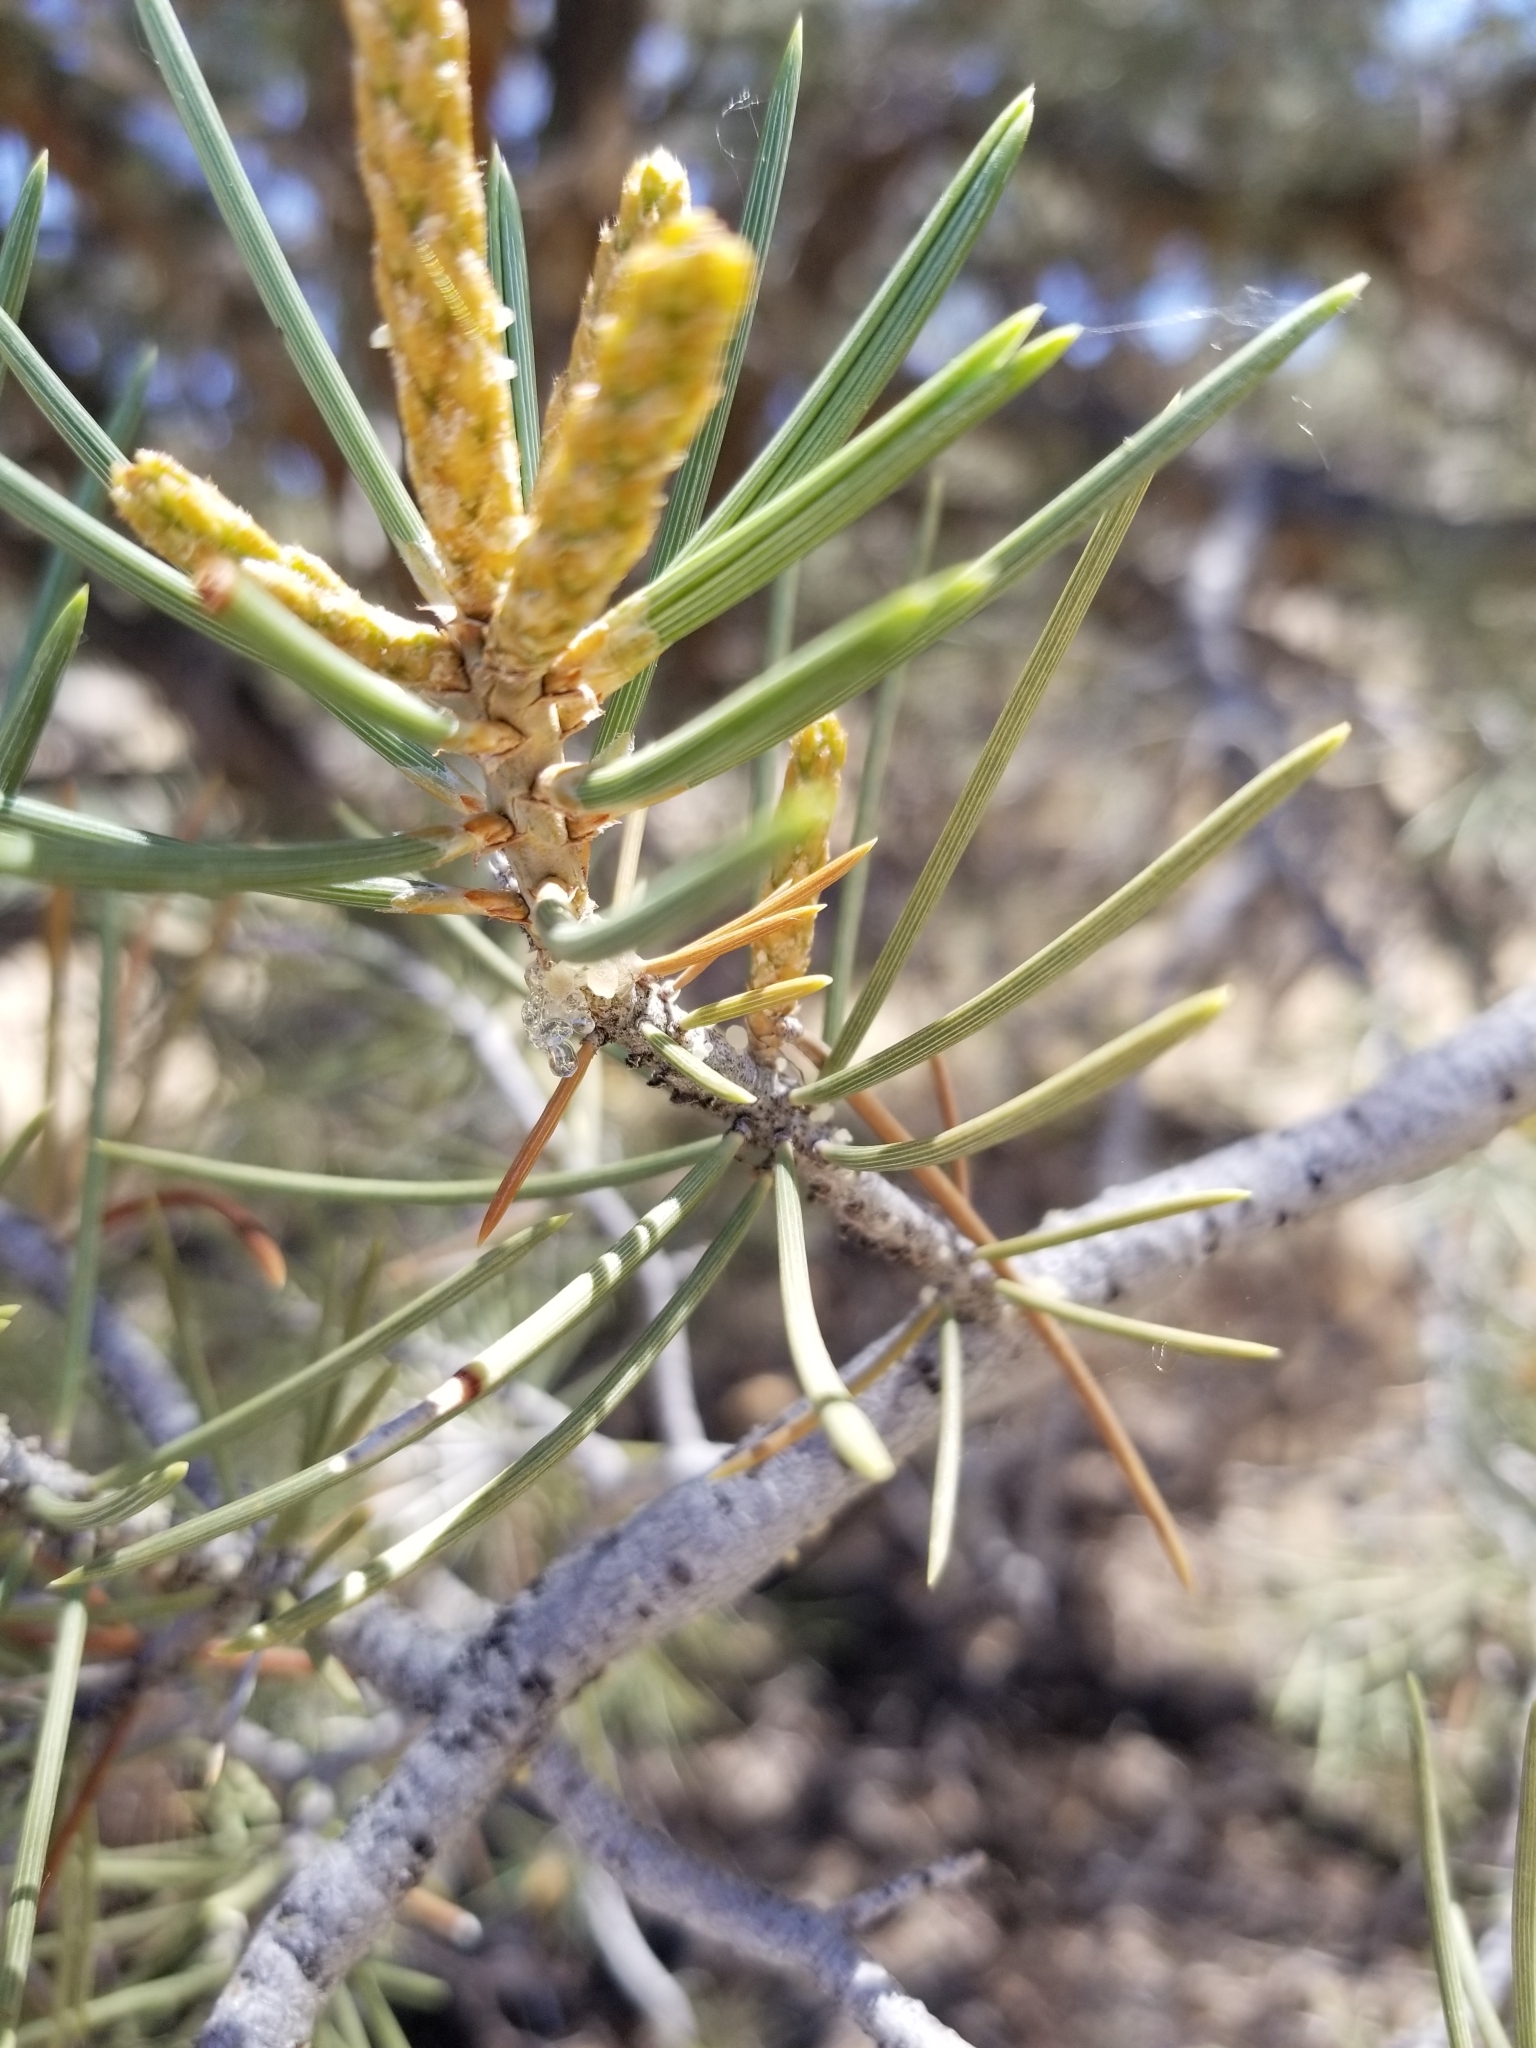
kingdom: Plantae
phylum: Tracheophyta
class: Pinopsida
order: Pinales
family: Pinaceae
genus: Pinus
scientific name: Pinus monophylla
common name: One-leaved nut pine
